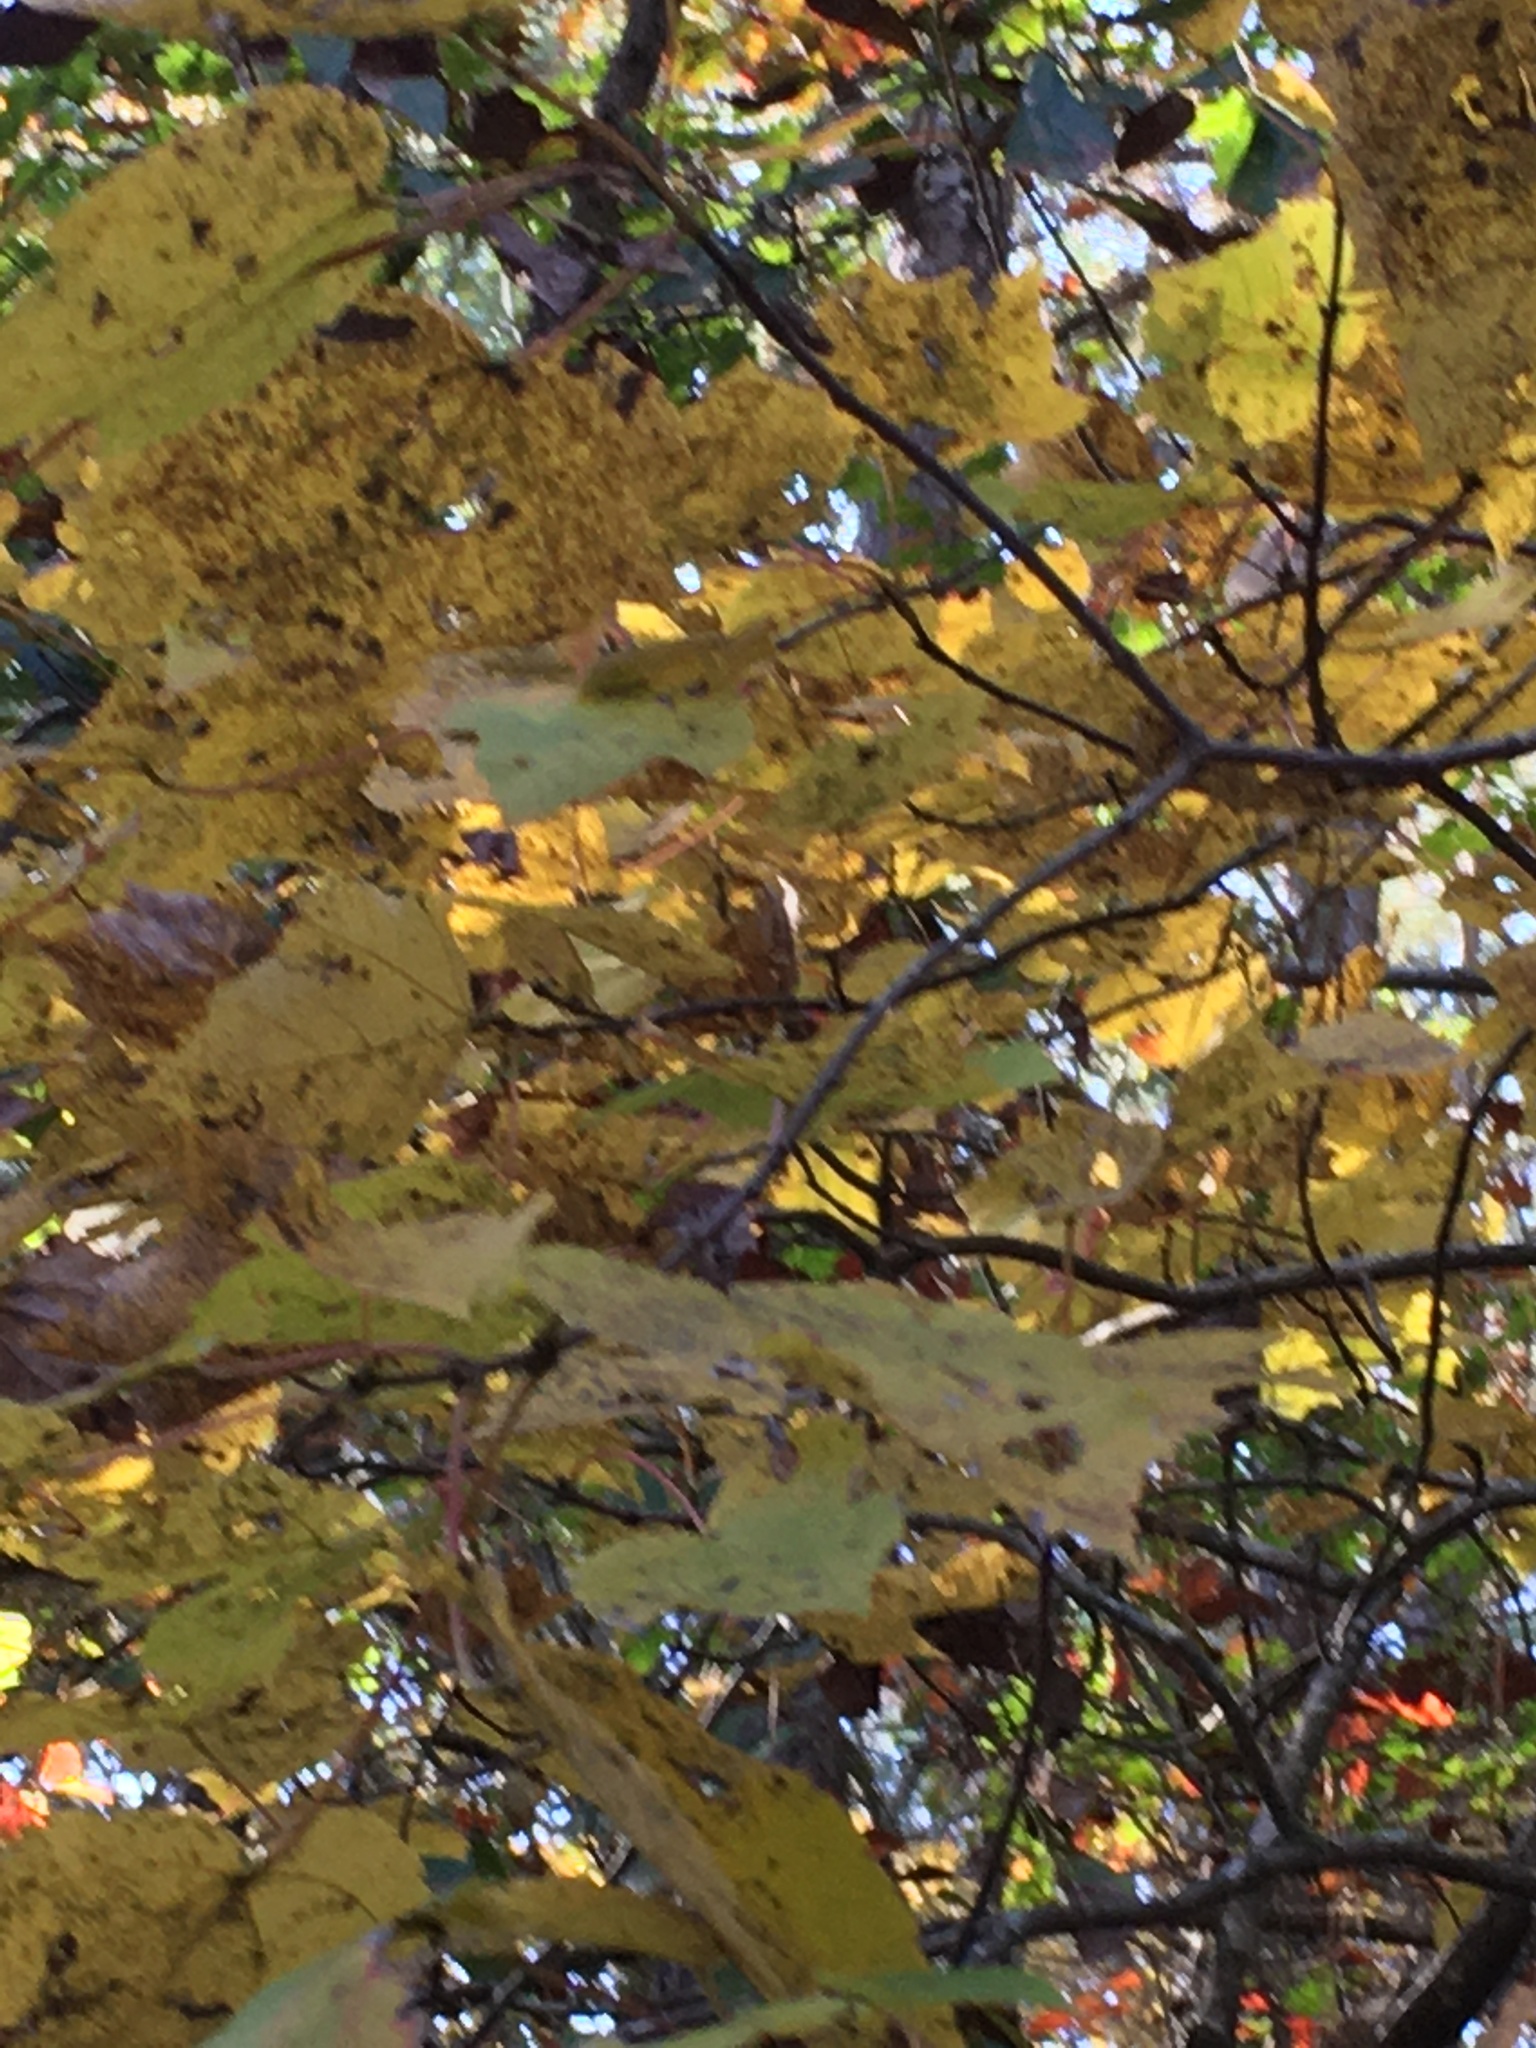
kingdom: Plantae
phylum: Tracheophyta
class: Magnoliopsida
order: Sapindales
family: Sapindaceae
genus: Acer
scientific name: Acer rubrum
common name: Red maple
